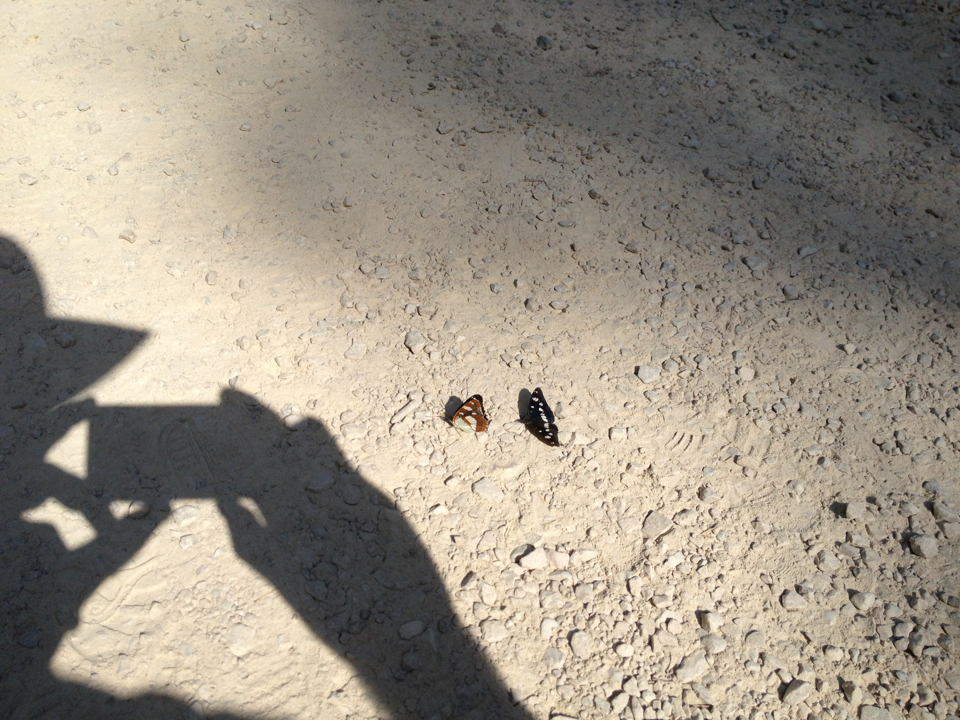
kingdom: Animalia
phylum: Arthropoda
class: Insecta
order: Lepidoptera
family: Nymphalidae
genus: Limenitis
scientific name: Limenitis reducta
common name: Southern white admiral
